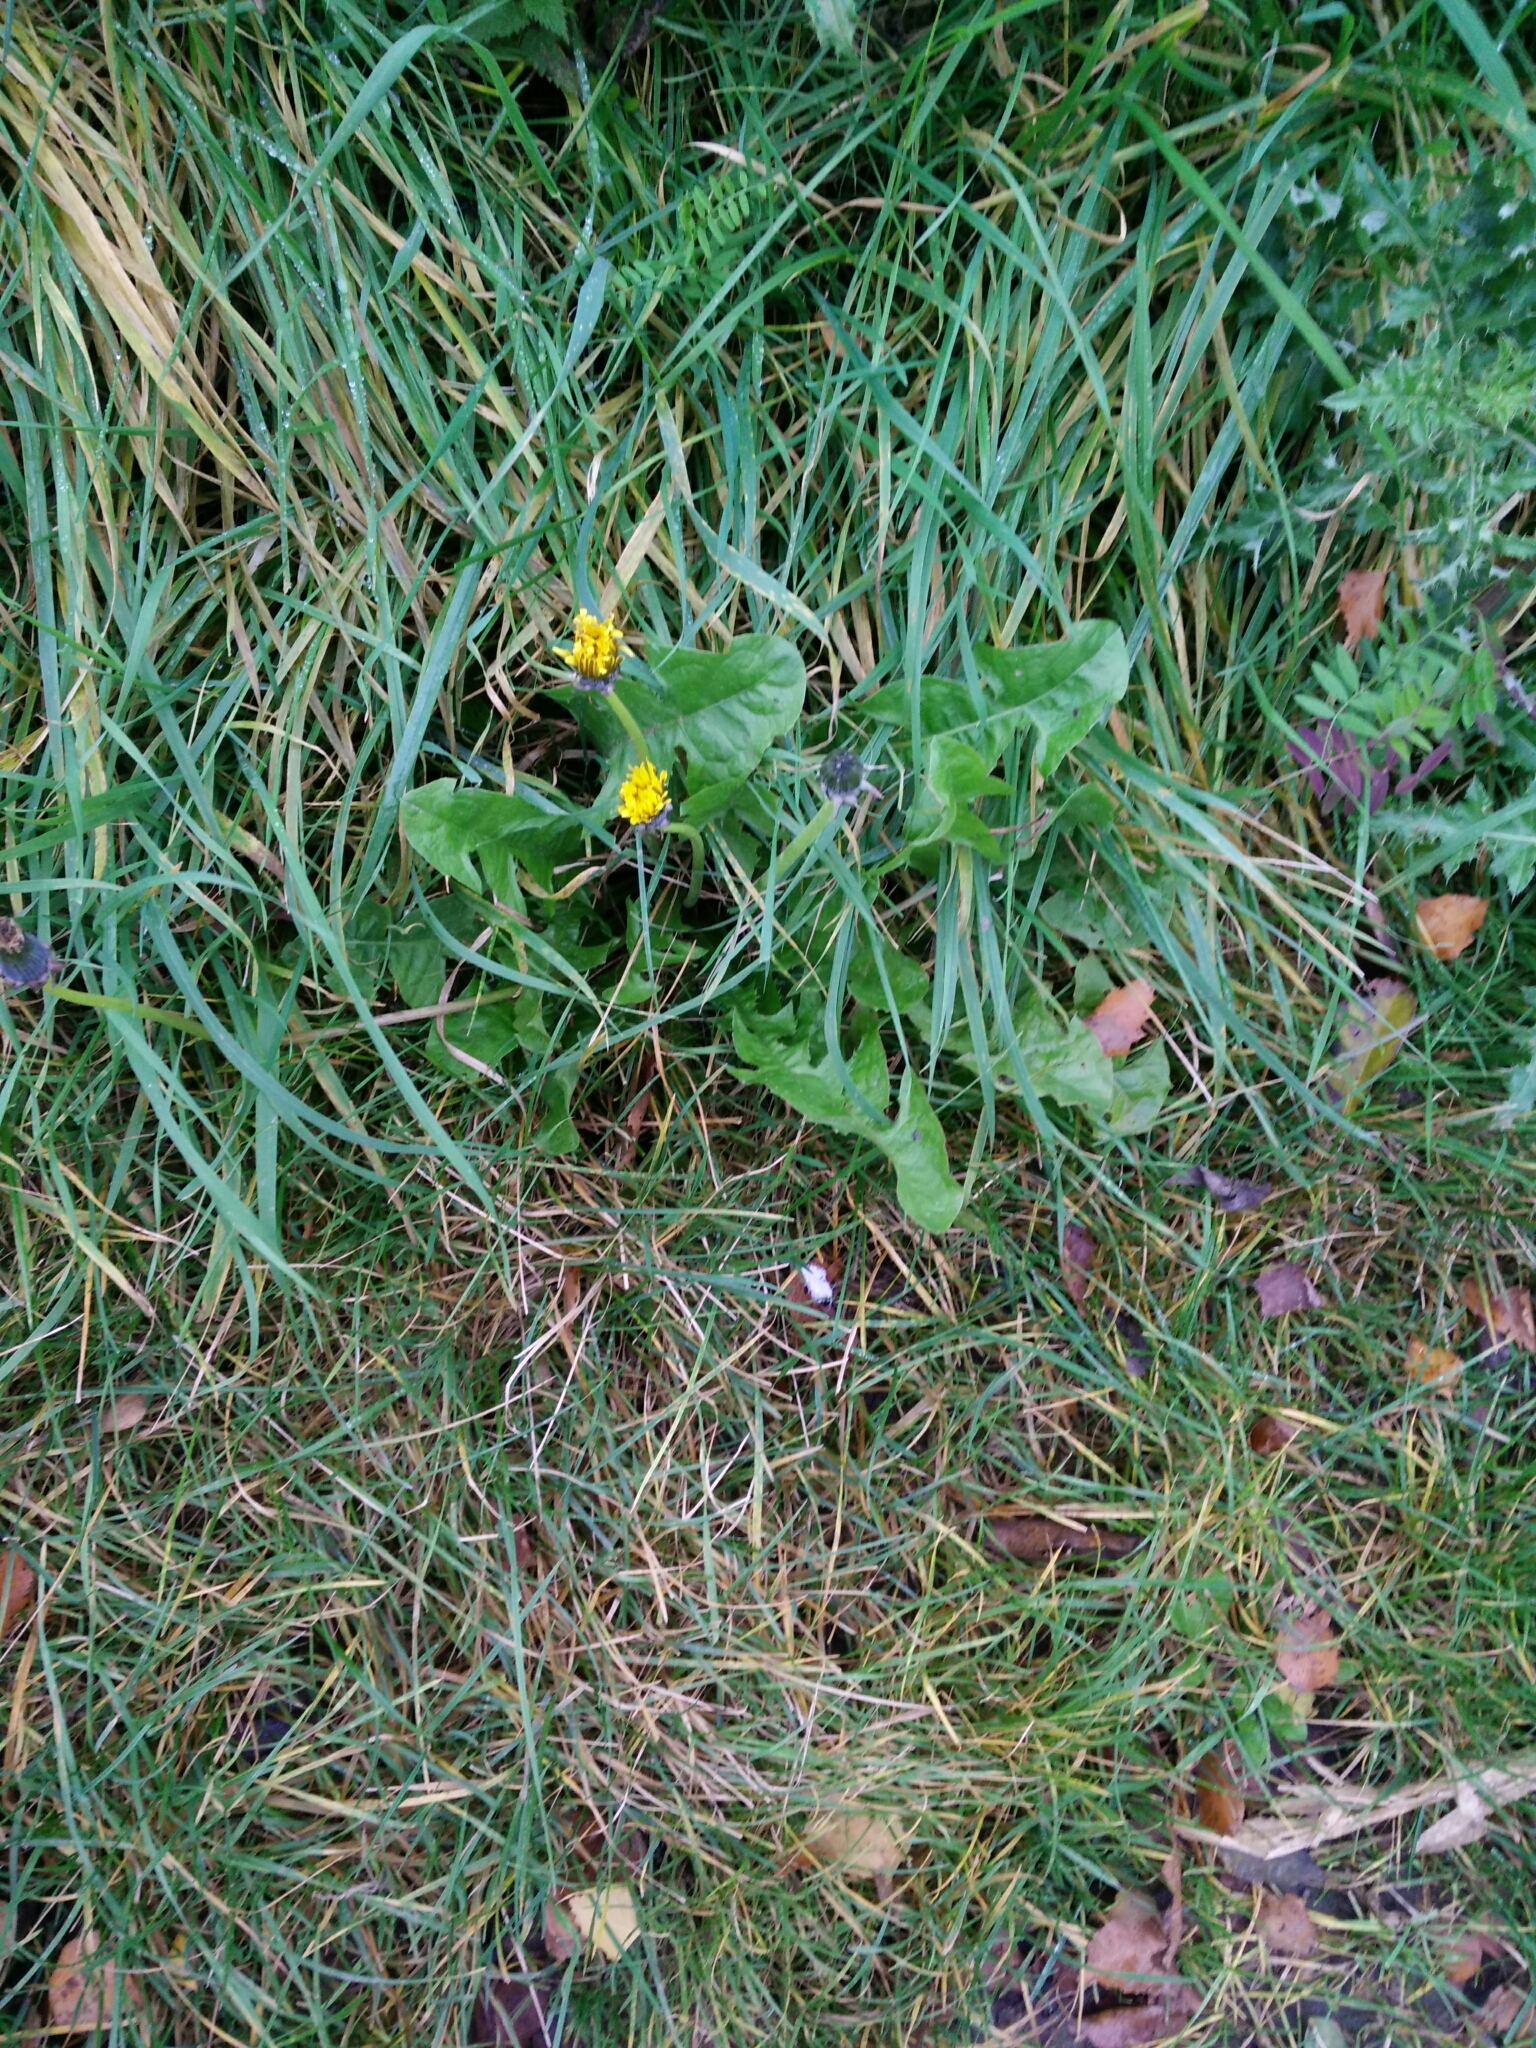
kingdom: Plantae
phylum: Tracheophyta
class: Magnoliopsida
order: Asterales
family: Asteraceae
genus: Taraxacum
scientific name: Taraxacum officinale
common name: Common dandelion
